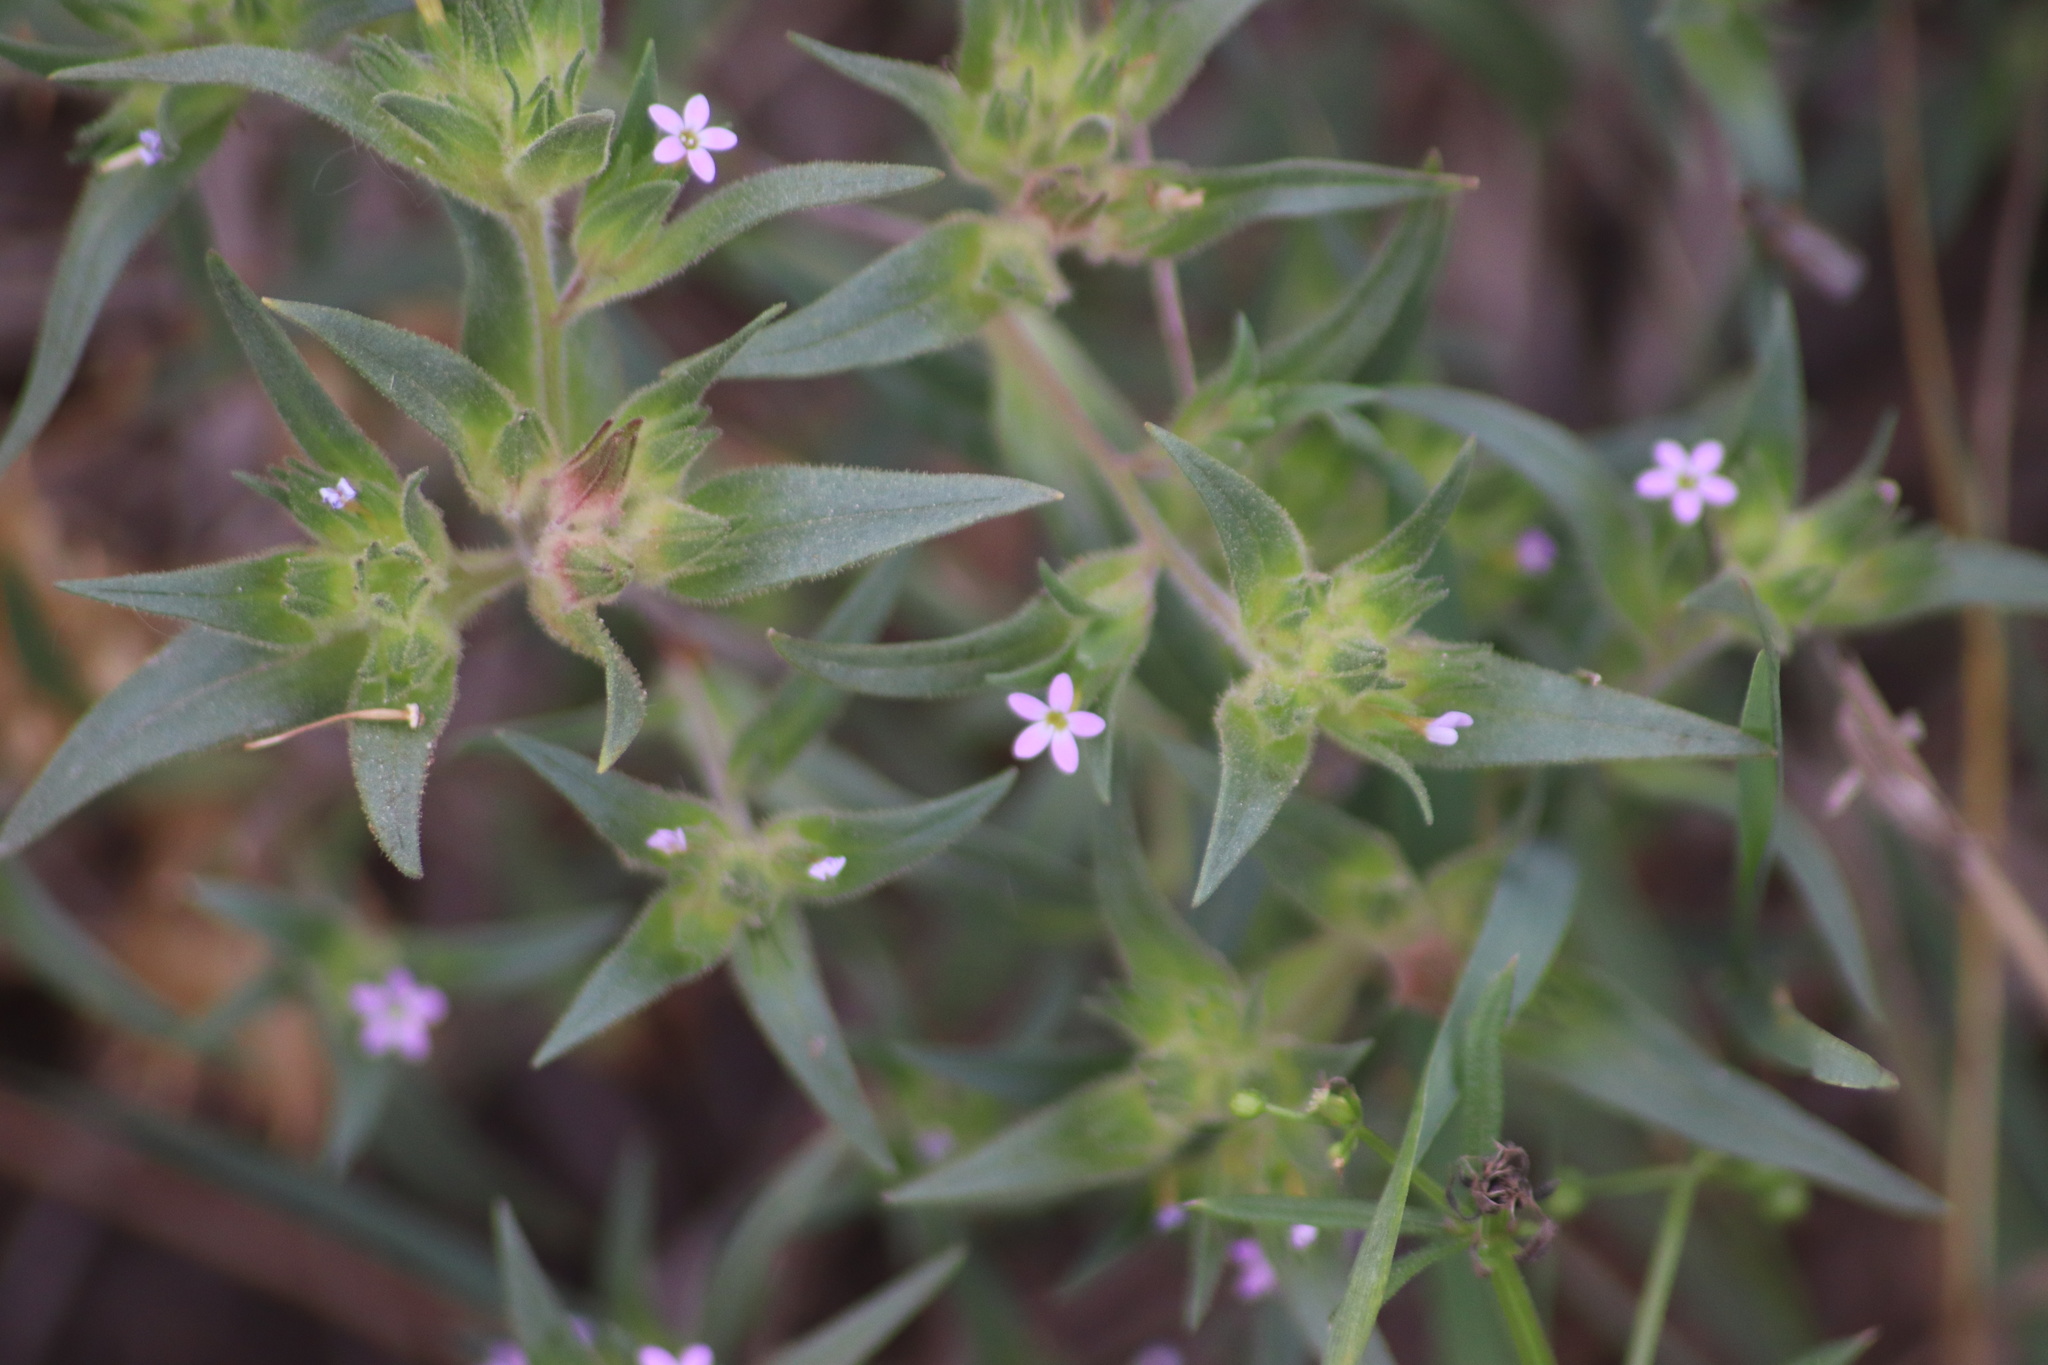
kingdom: Plantae
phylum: Tracheophyta
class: Magnoliopsida
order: Ericales
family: Polemoniaceae
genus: Collomia
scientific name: Collomia linearis
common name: Tiny trumpet
